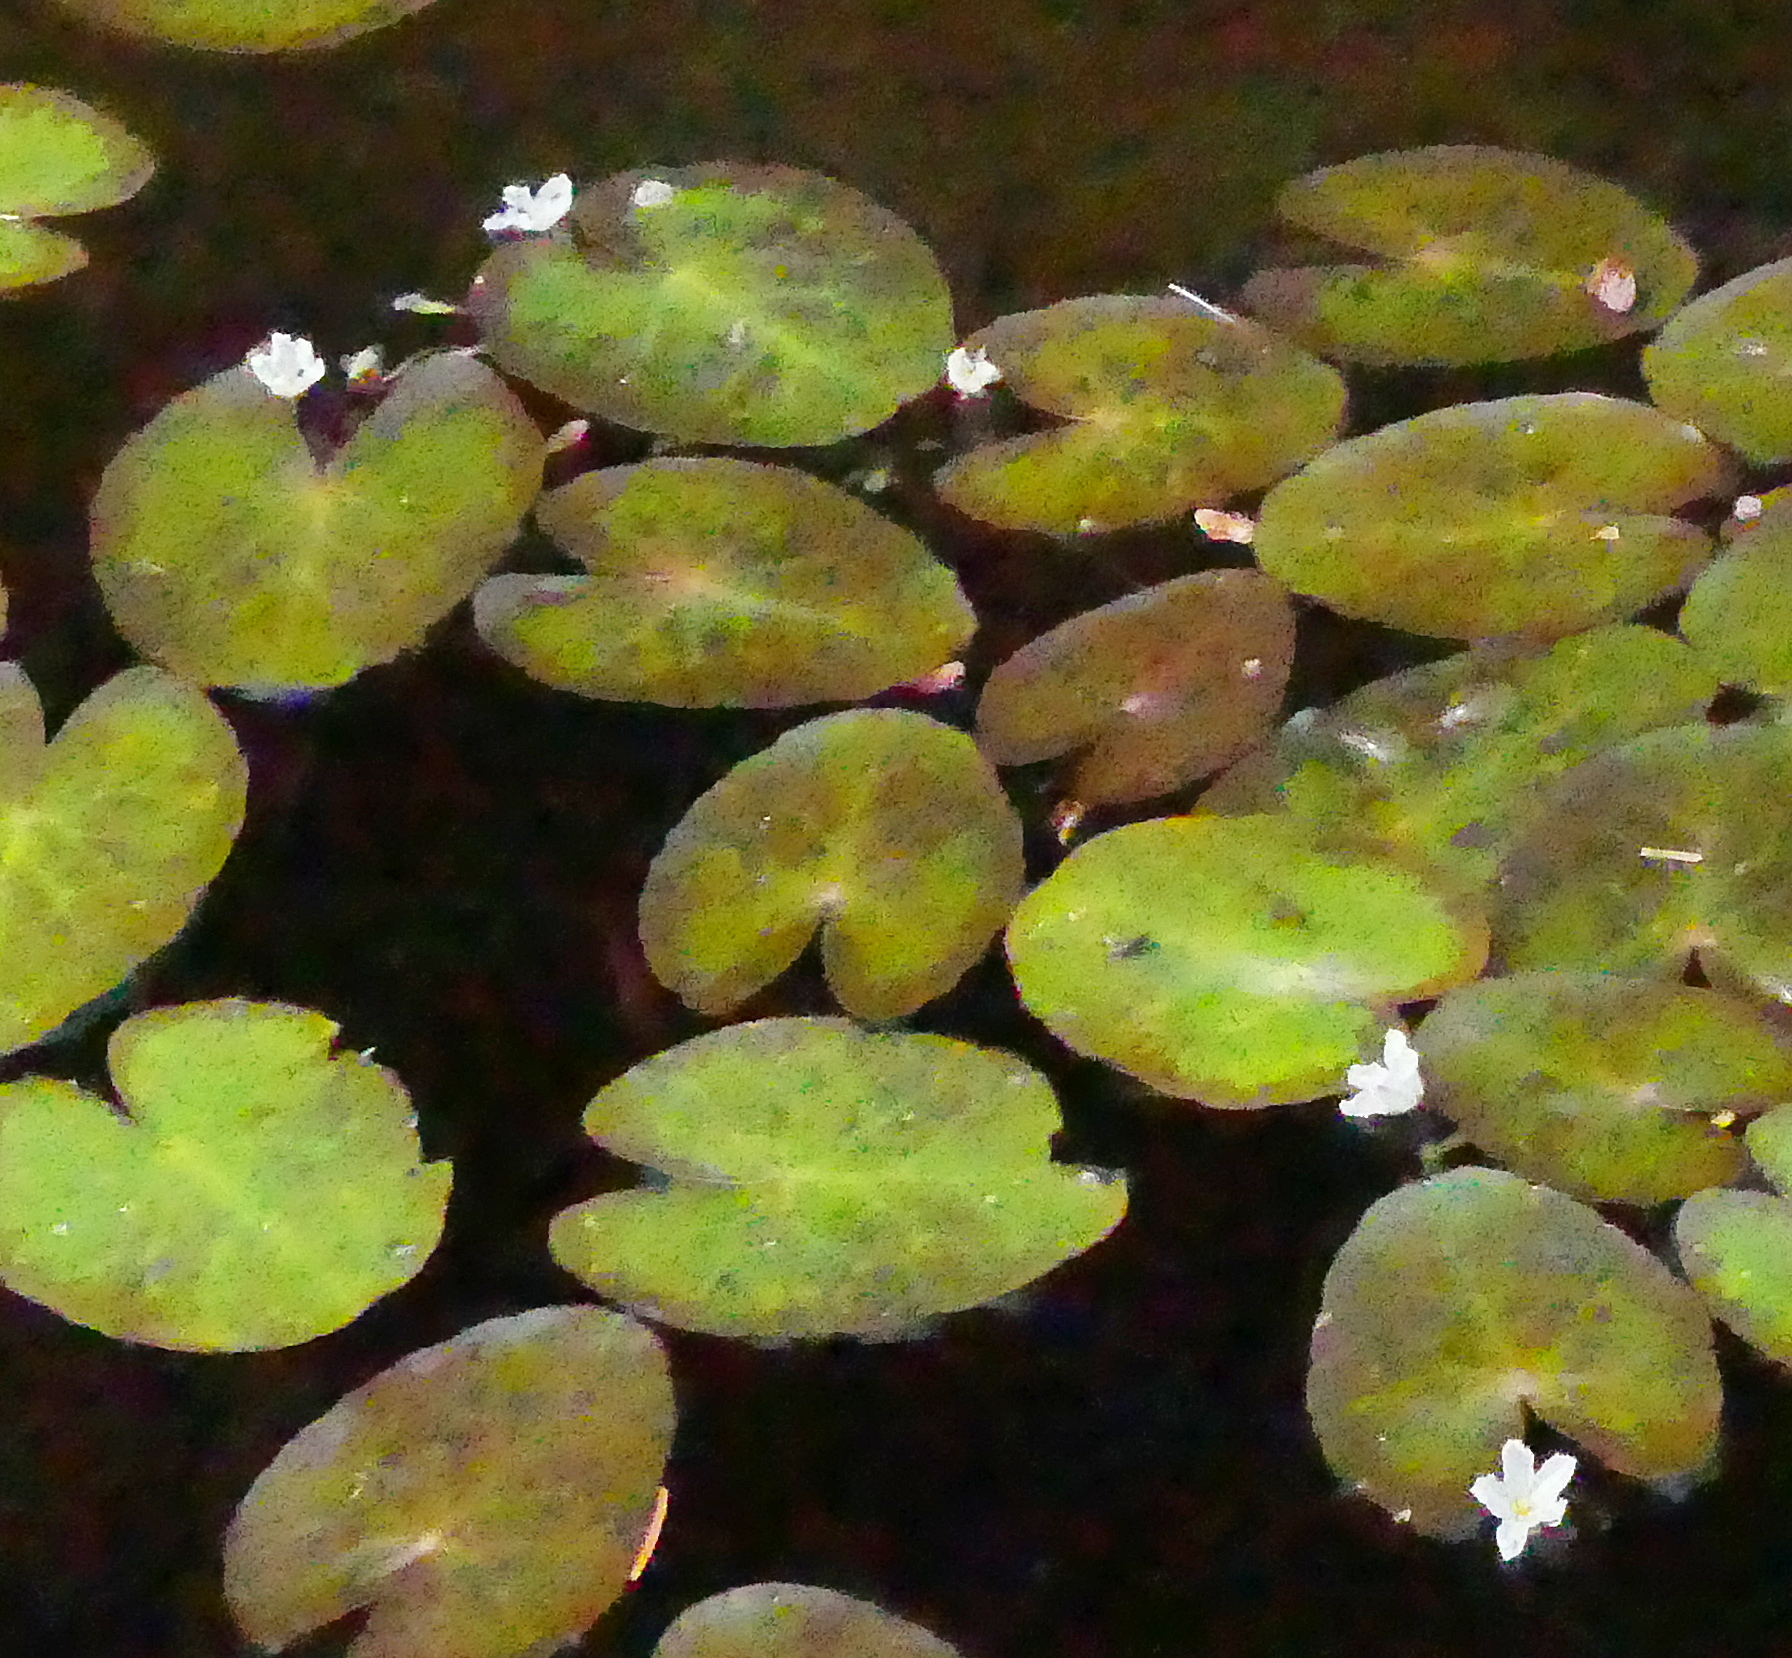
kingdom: Plantae
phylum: Tracheophyta
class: Magnoliopsida
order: Asterales
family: Menyanthaceae
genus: Nymphoides
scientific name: Nymphoides cordata
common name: Eight-angled floatingheart
